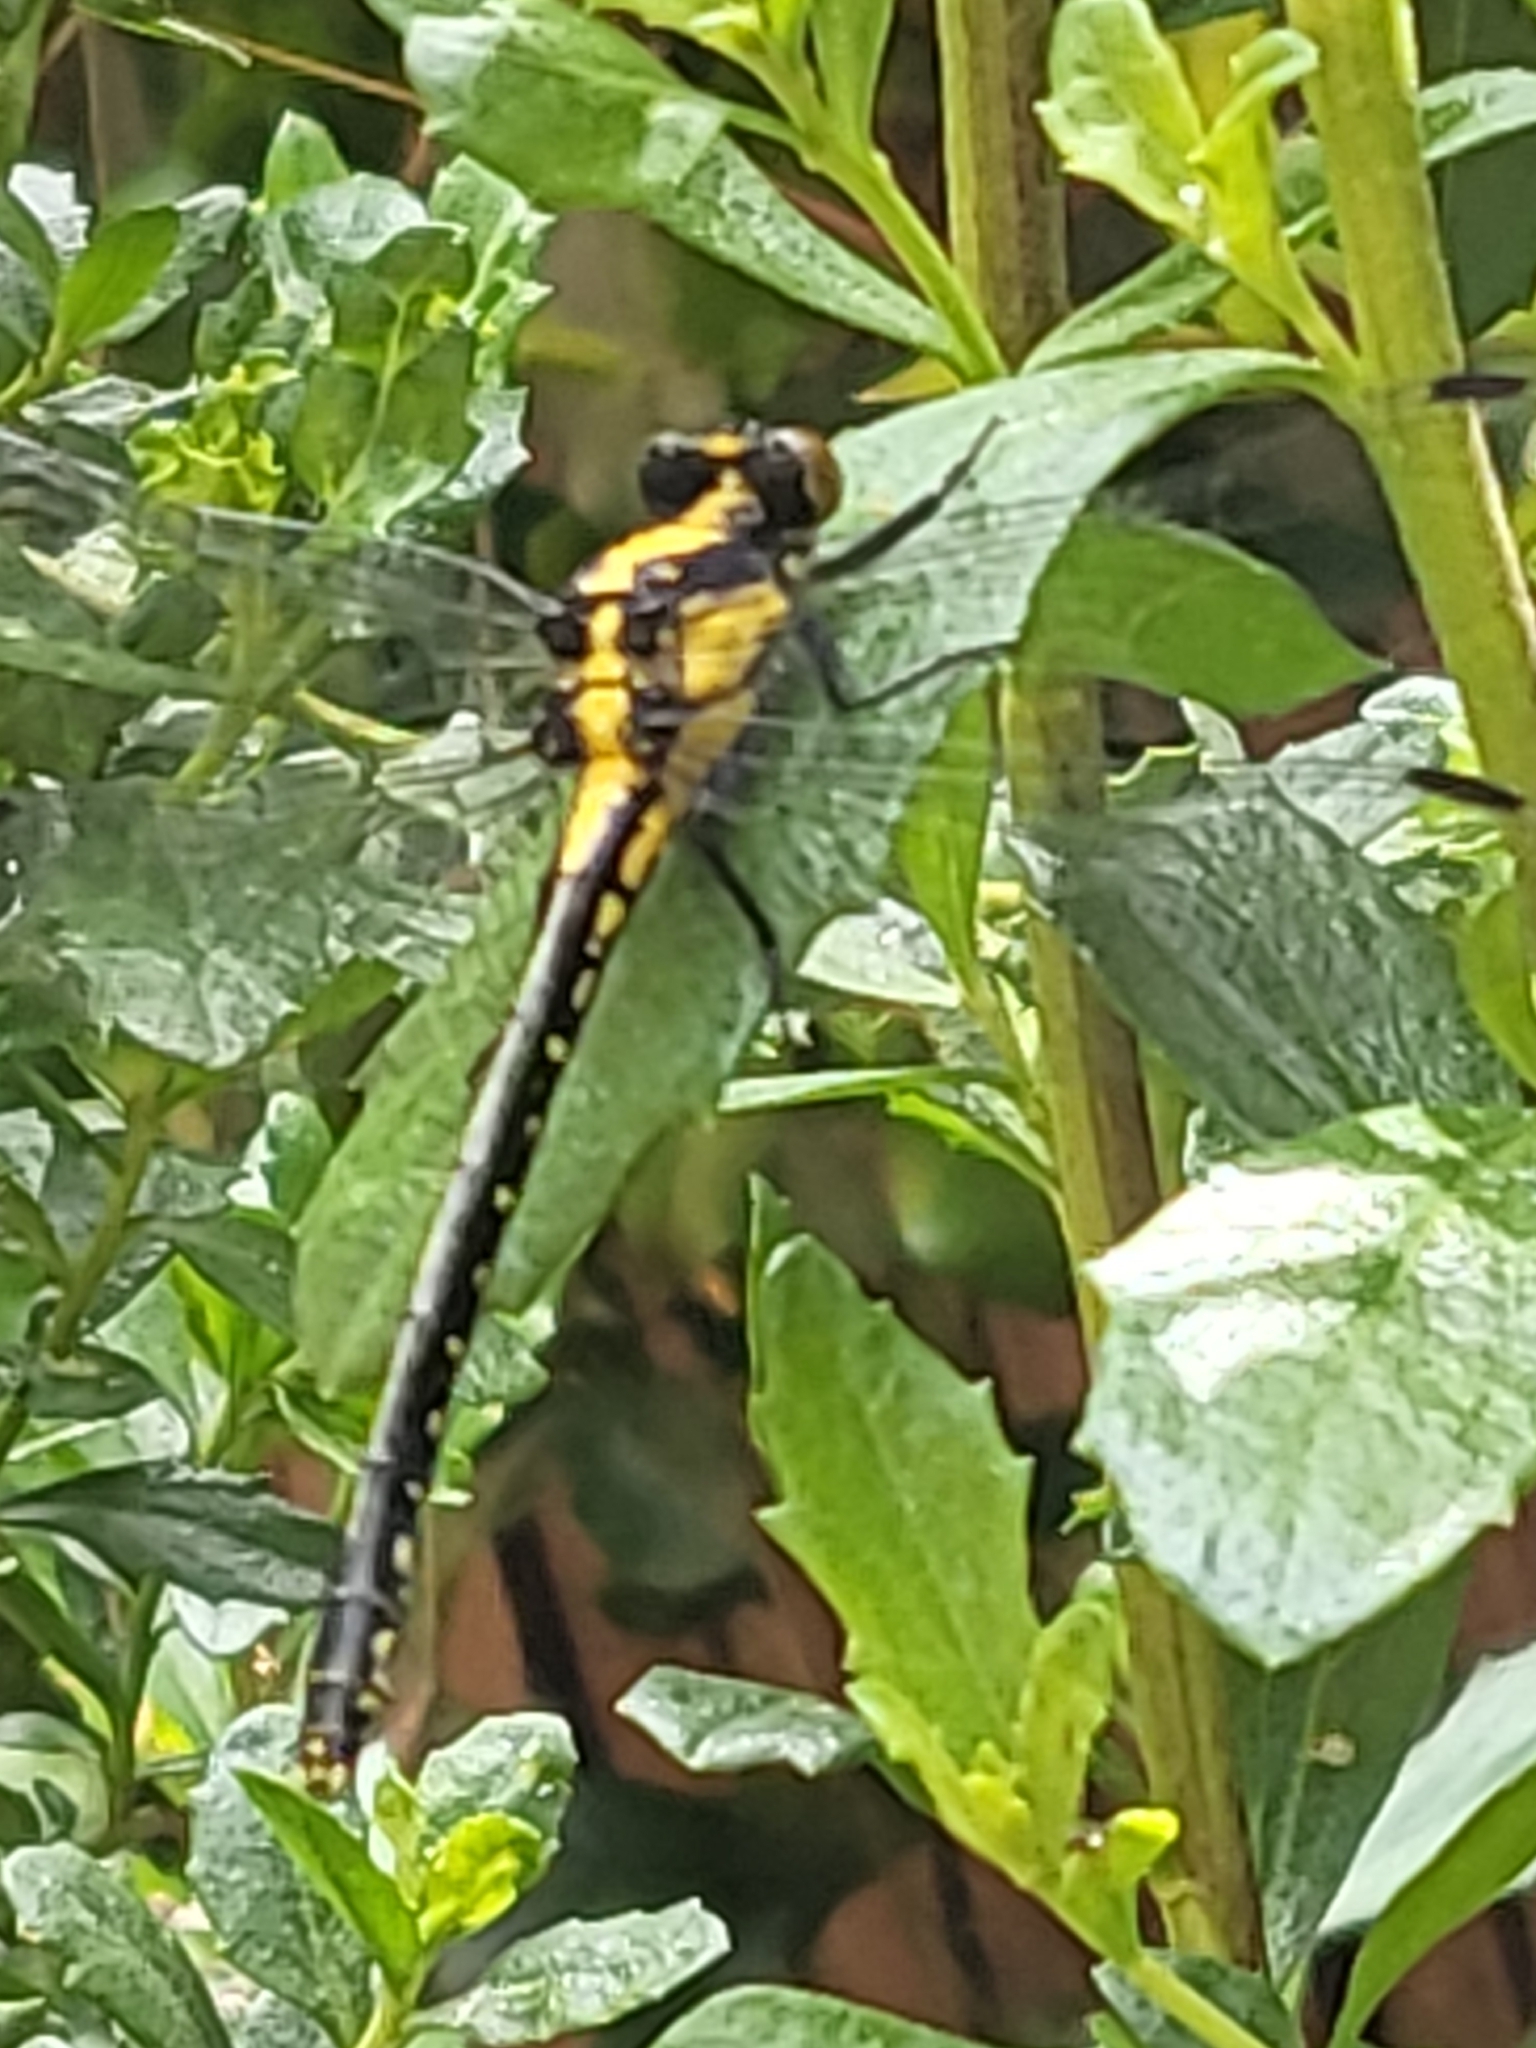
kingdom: Animalia
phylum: Arthropoda
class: Insecta
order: Odonata
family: Gomphidae
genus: Octogomphus
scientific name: Octogomphus specularis
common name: Grappletail
